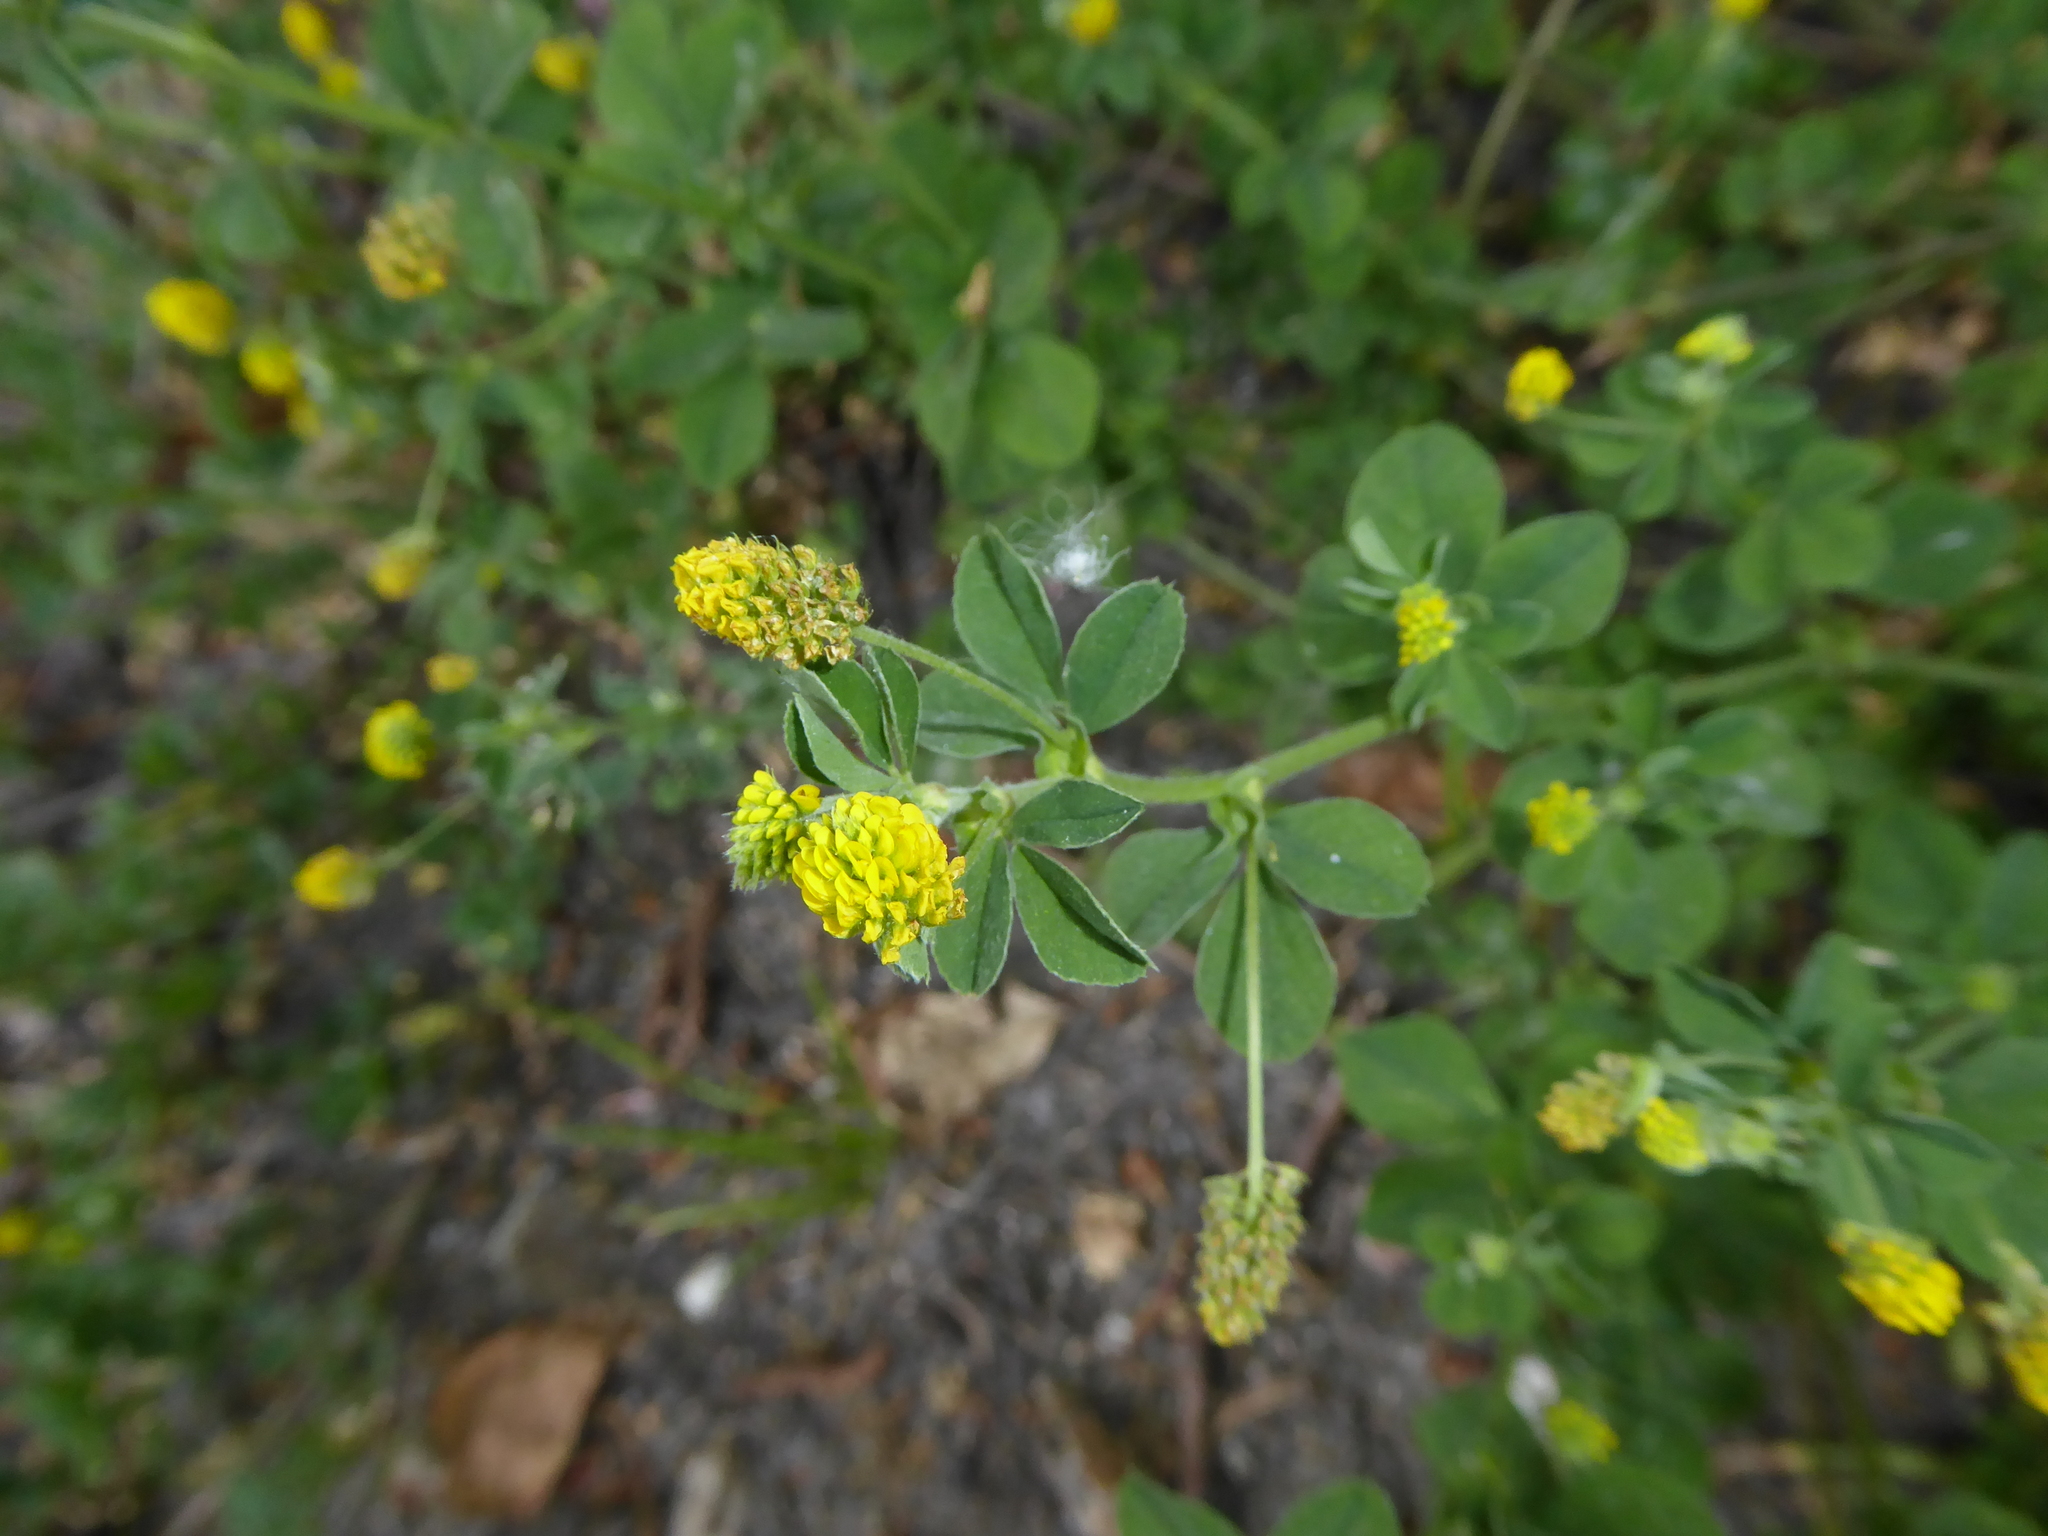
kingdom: Plantae
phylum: Tracheophyta
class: Magnoliopsida
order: Fabales
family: Fabaceae
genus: Medicago
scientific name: Medicago lupulina
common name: Black medick
